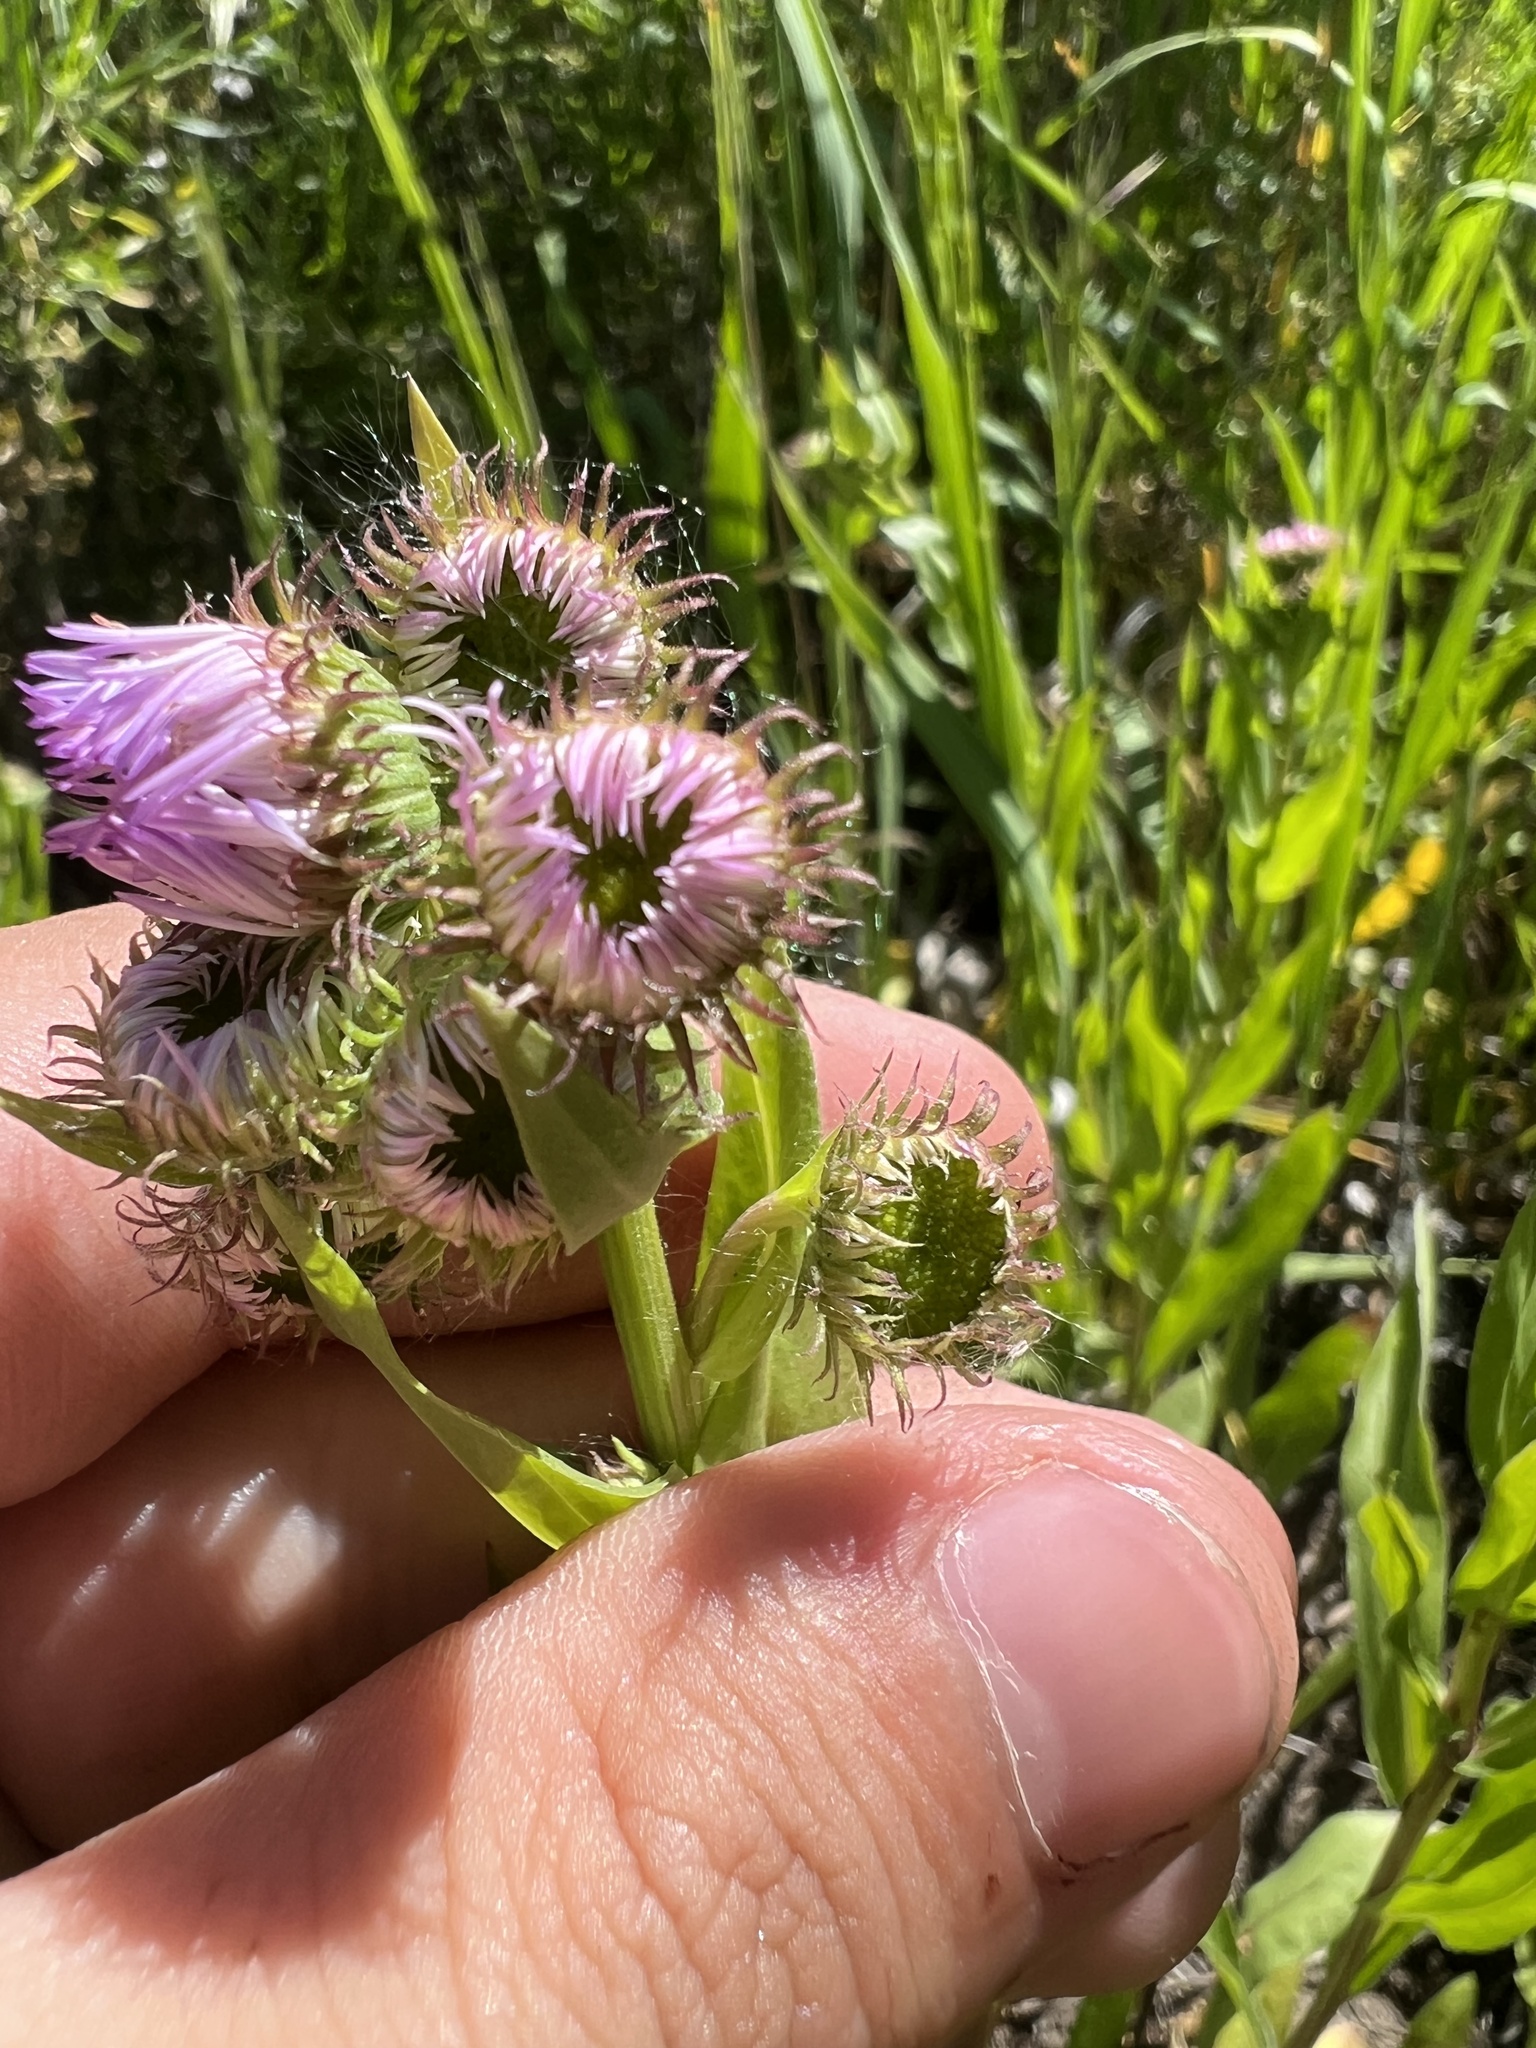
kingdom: Plantae
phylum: Tracheophyta
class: Magnoliopsida
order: Asterales
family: Asteraceae
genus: Erigeron
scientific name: Erigeron speciosus
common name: Aspen fleabane
